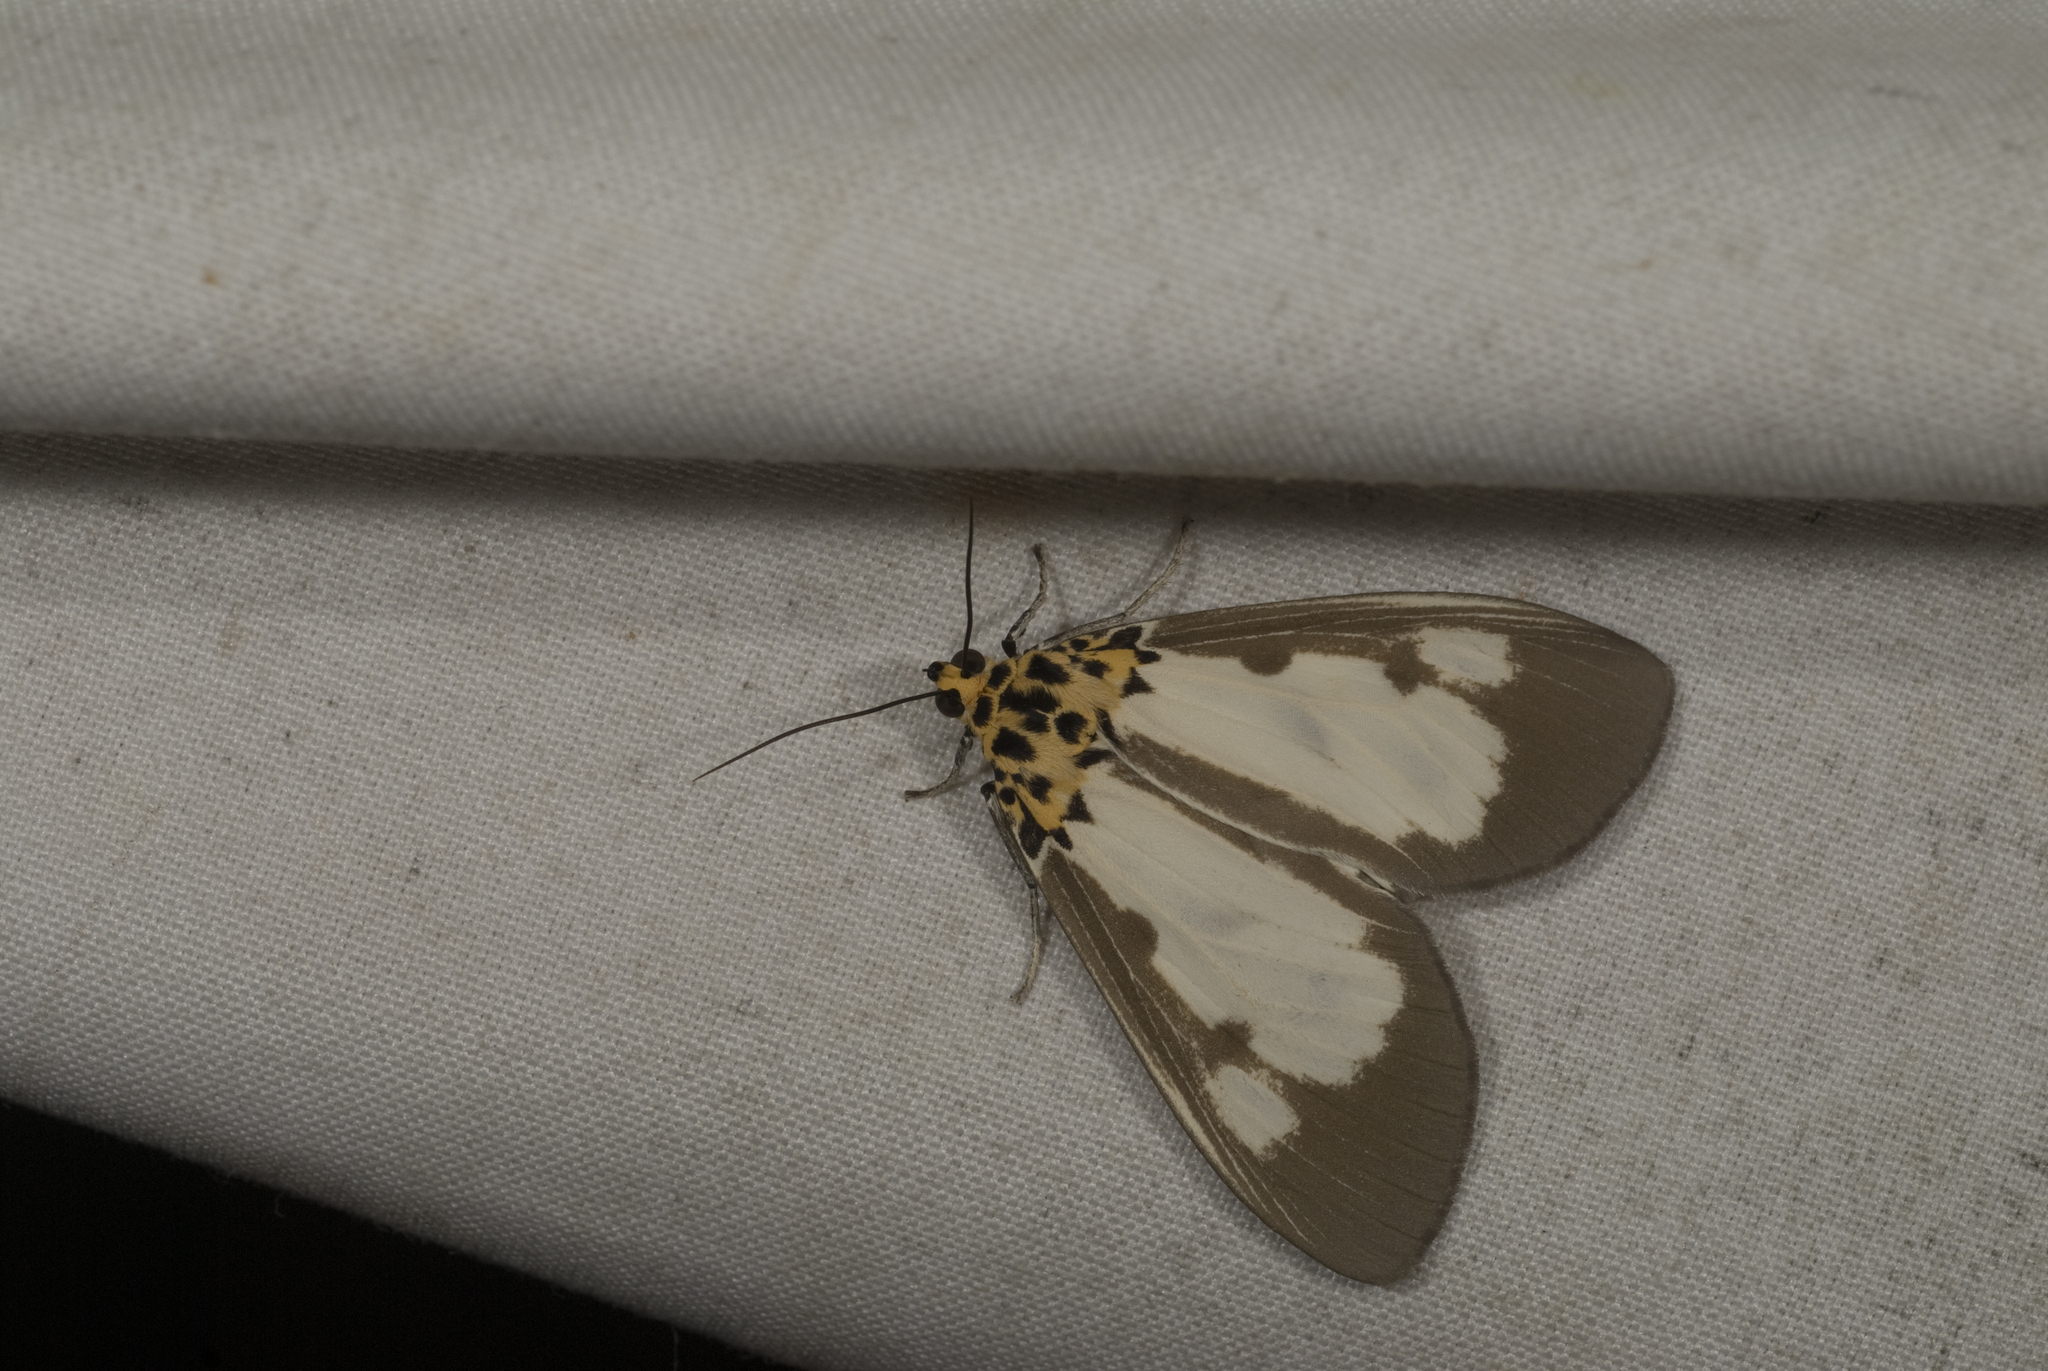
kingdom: Animalia
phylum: Arthropoda
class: Insecta
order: Lepidoptera
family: Erebidae
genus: Asota
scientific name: Asota plana
